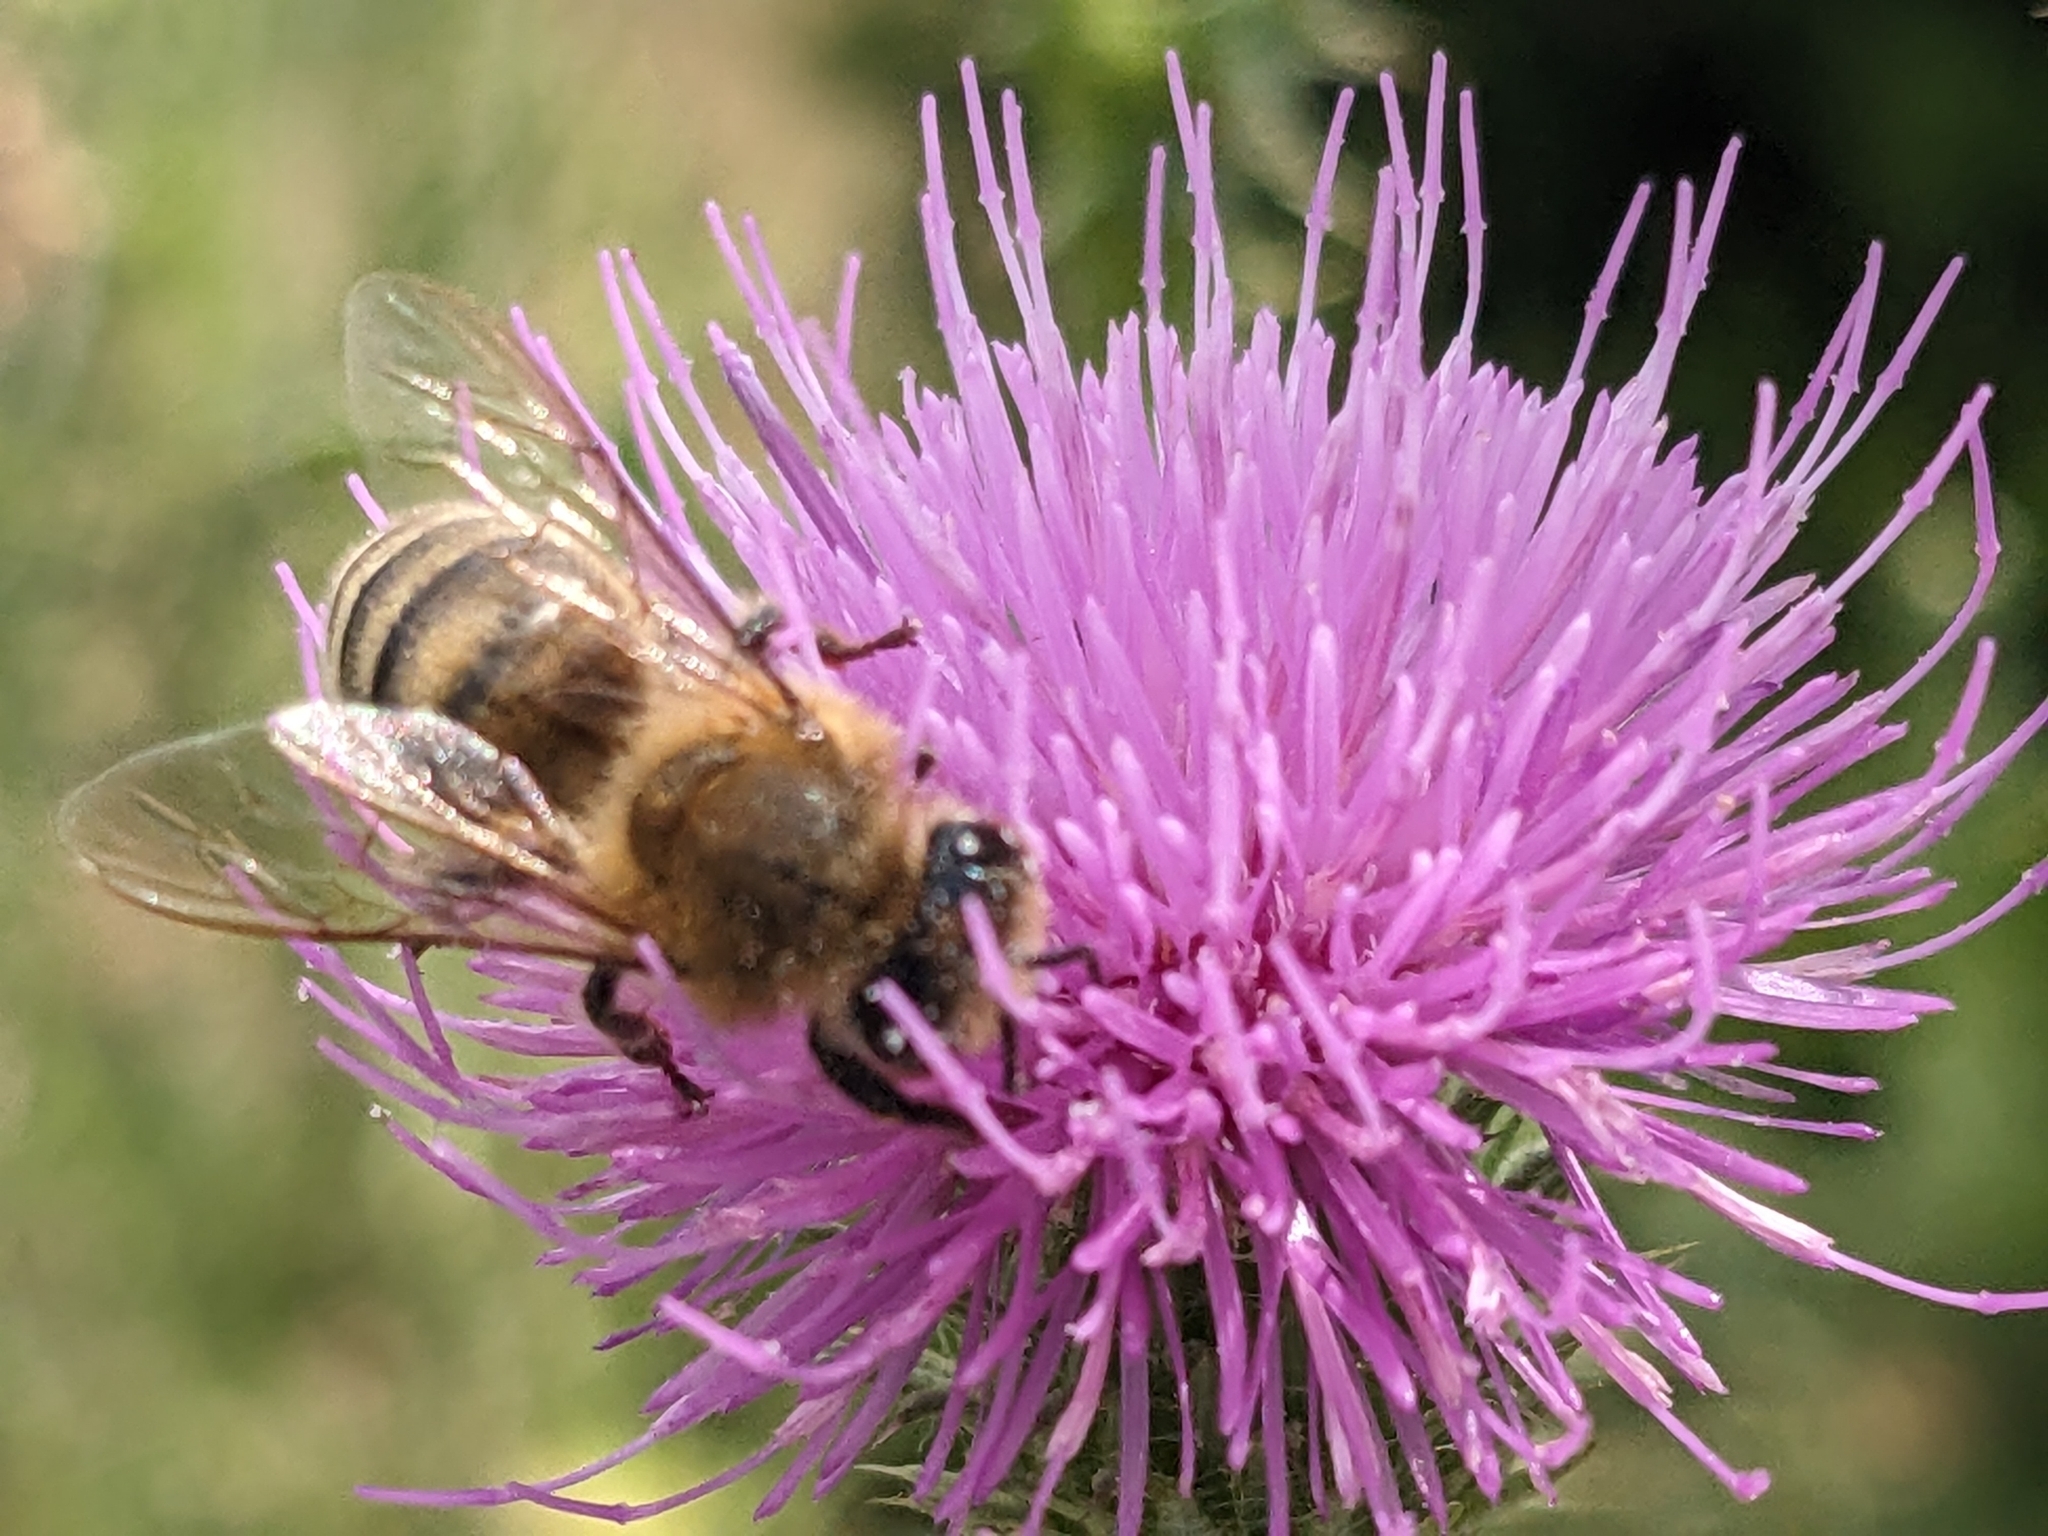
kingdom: Animalia
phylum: Arthropoda
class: Insecta
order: Hymenoptera
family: Apidae
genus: Apis
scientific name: Apis mellifera
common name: Honey bee
